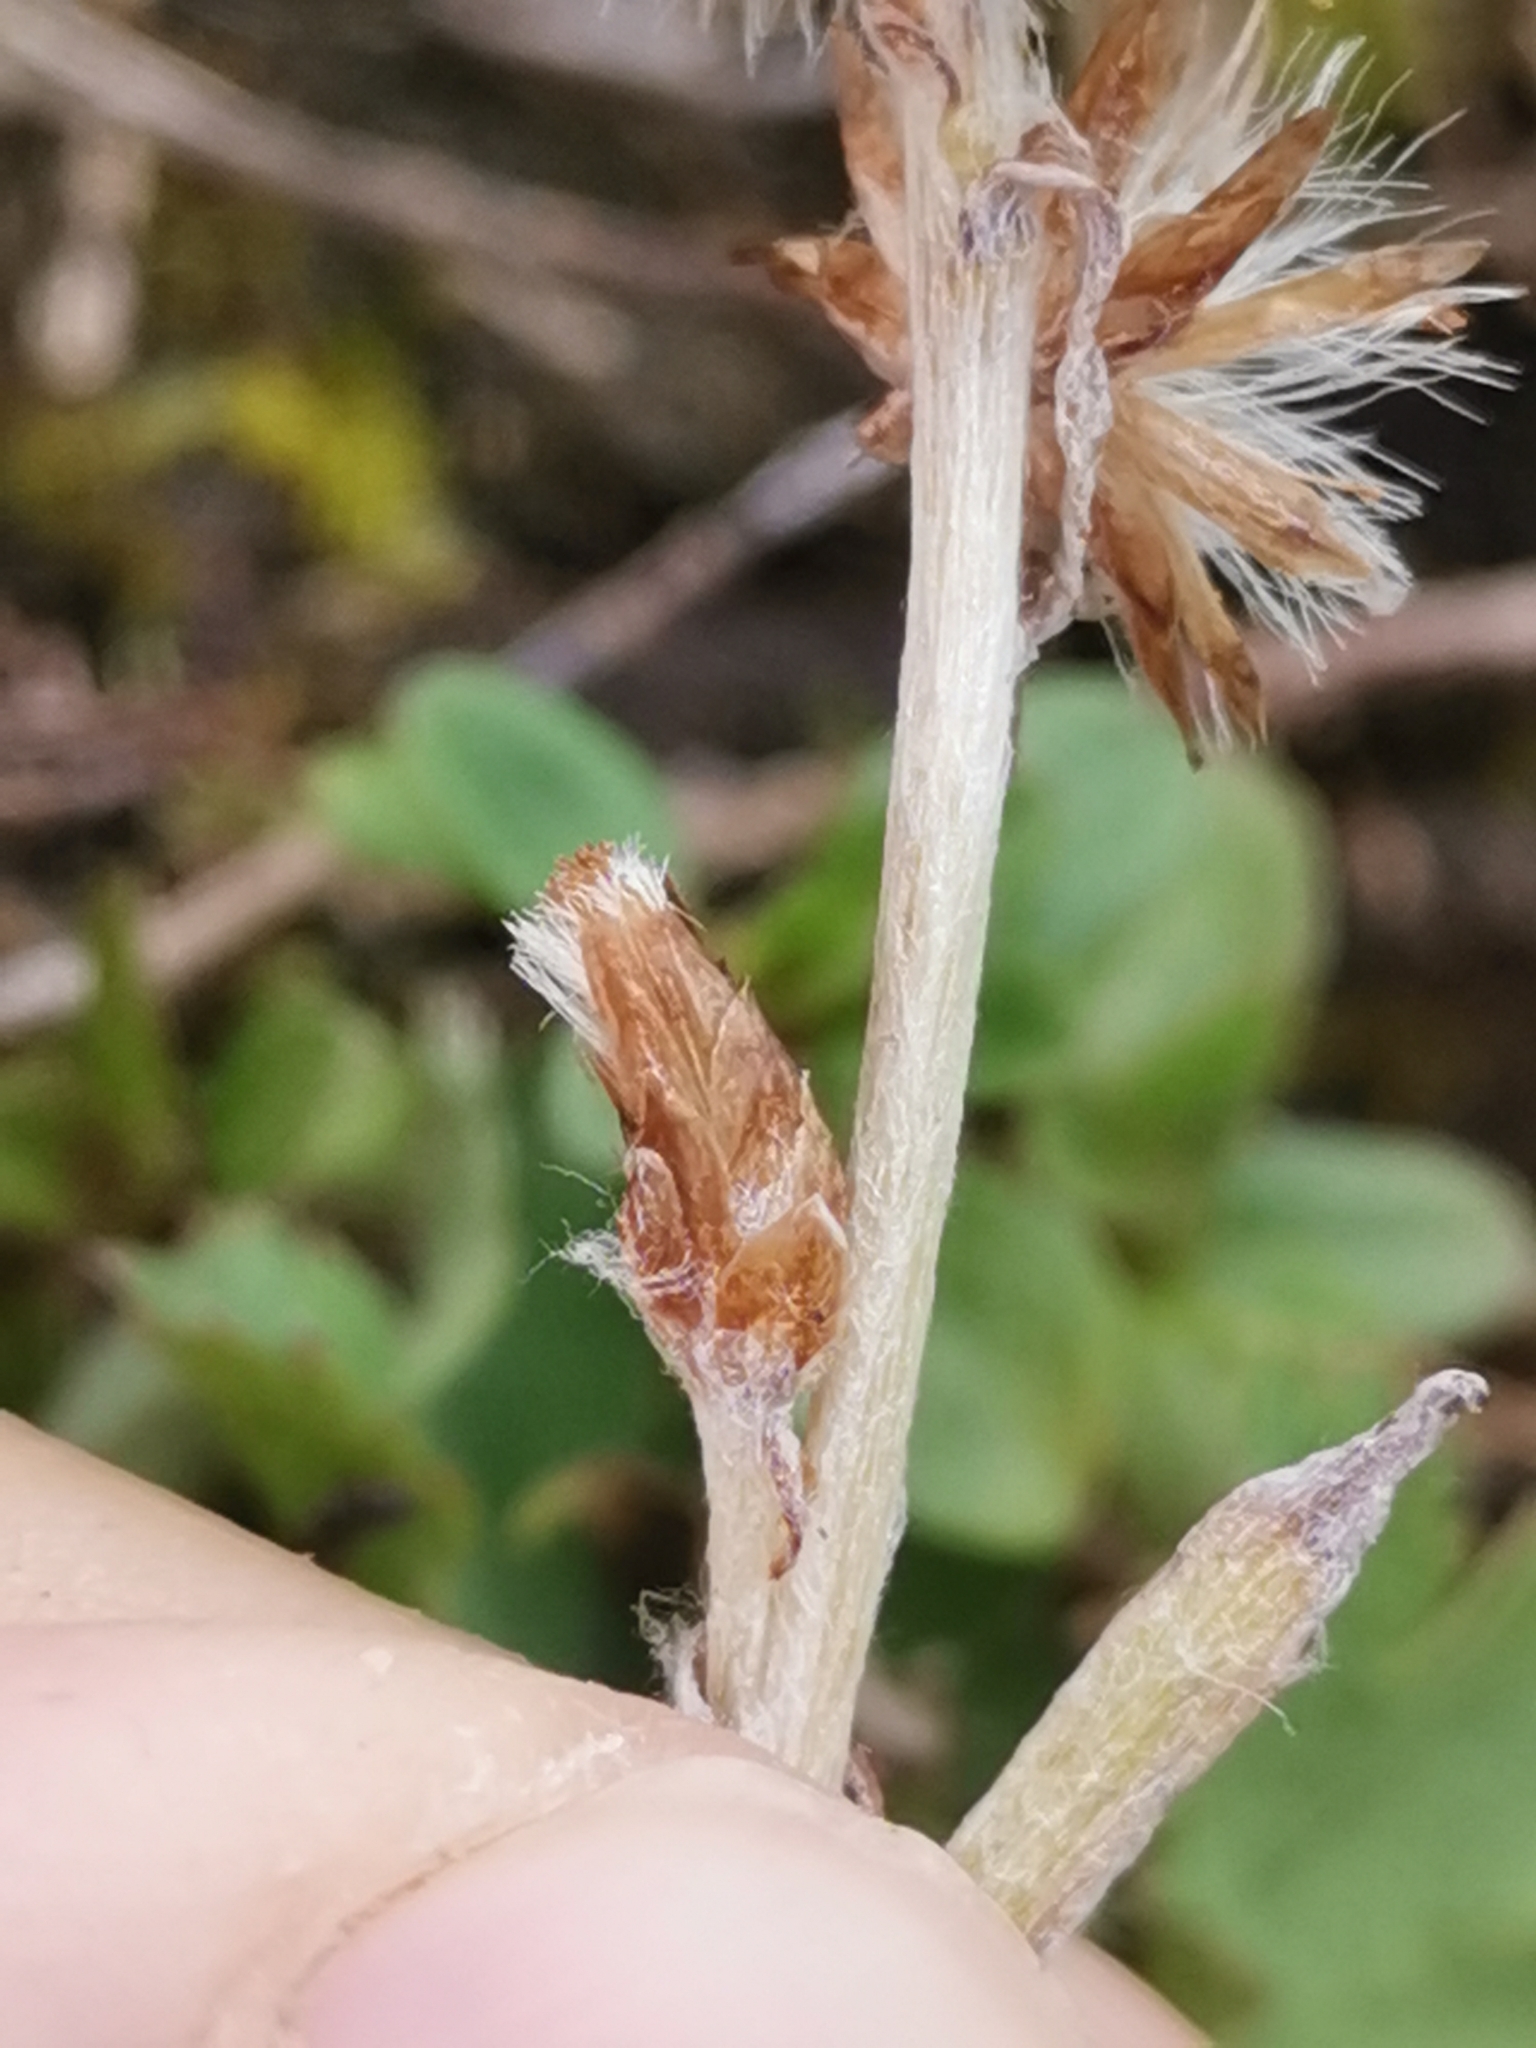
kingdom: Plantae
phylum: Tracheophyta
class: Magnoliopsida
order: Asterales
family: Asteraceae
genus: Omalotheca
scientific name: Omalotheca hoppeana
